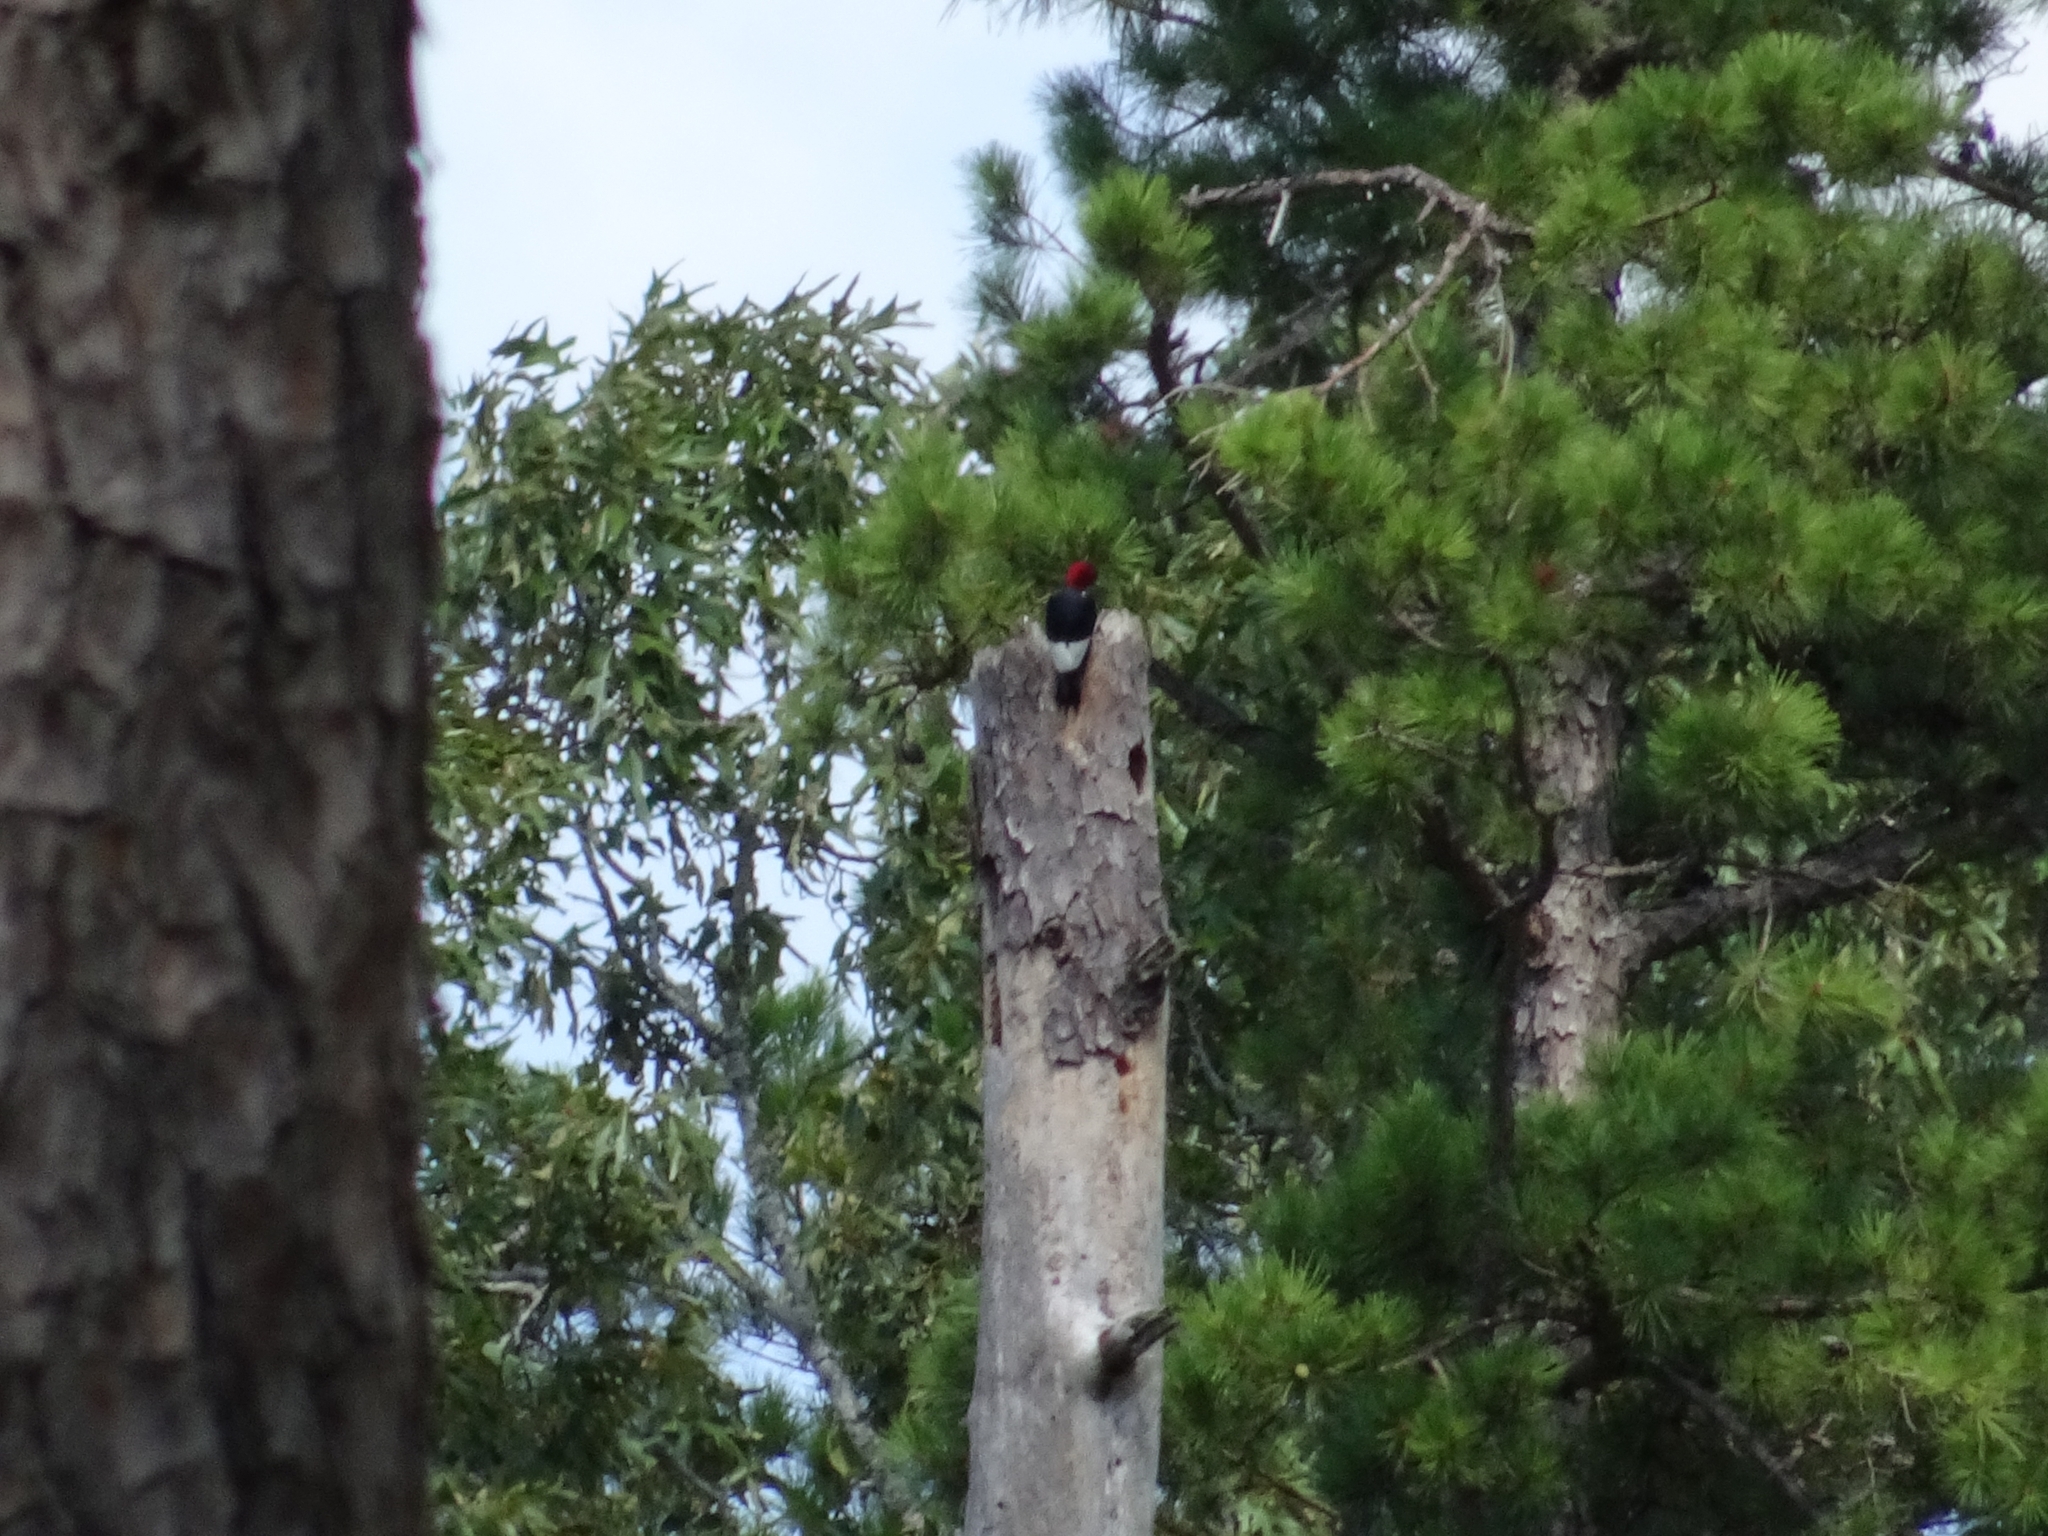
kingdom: Animalia
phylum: Chordata
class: Aves
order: Piciformes
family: Picidae
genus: Melanerpes
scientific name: Melanerpes erythrocephalus
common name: Red-headed woodpecker
